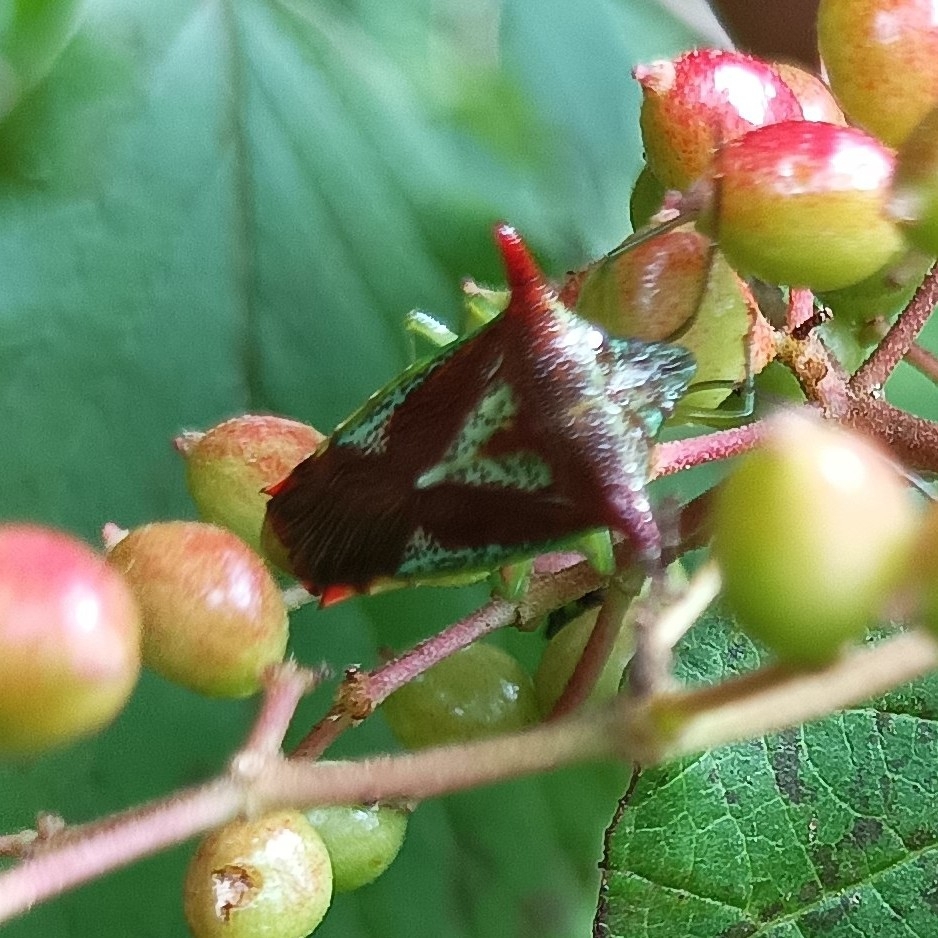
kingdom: Animalia
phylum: Arthropoda
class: Insecta
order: Hemiptera
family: Acanthosomatidae
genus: Acanthosoma
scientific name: Acanthosoma rufescens
